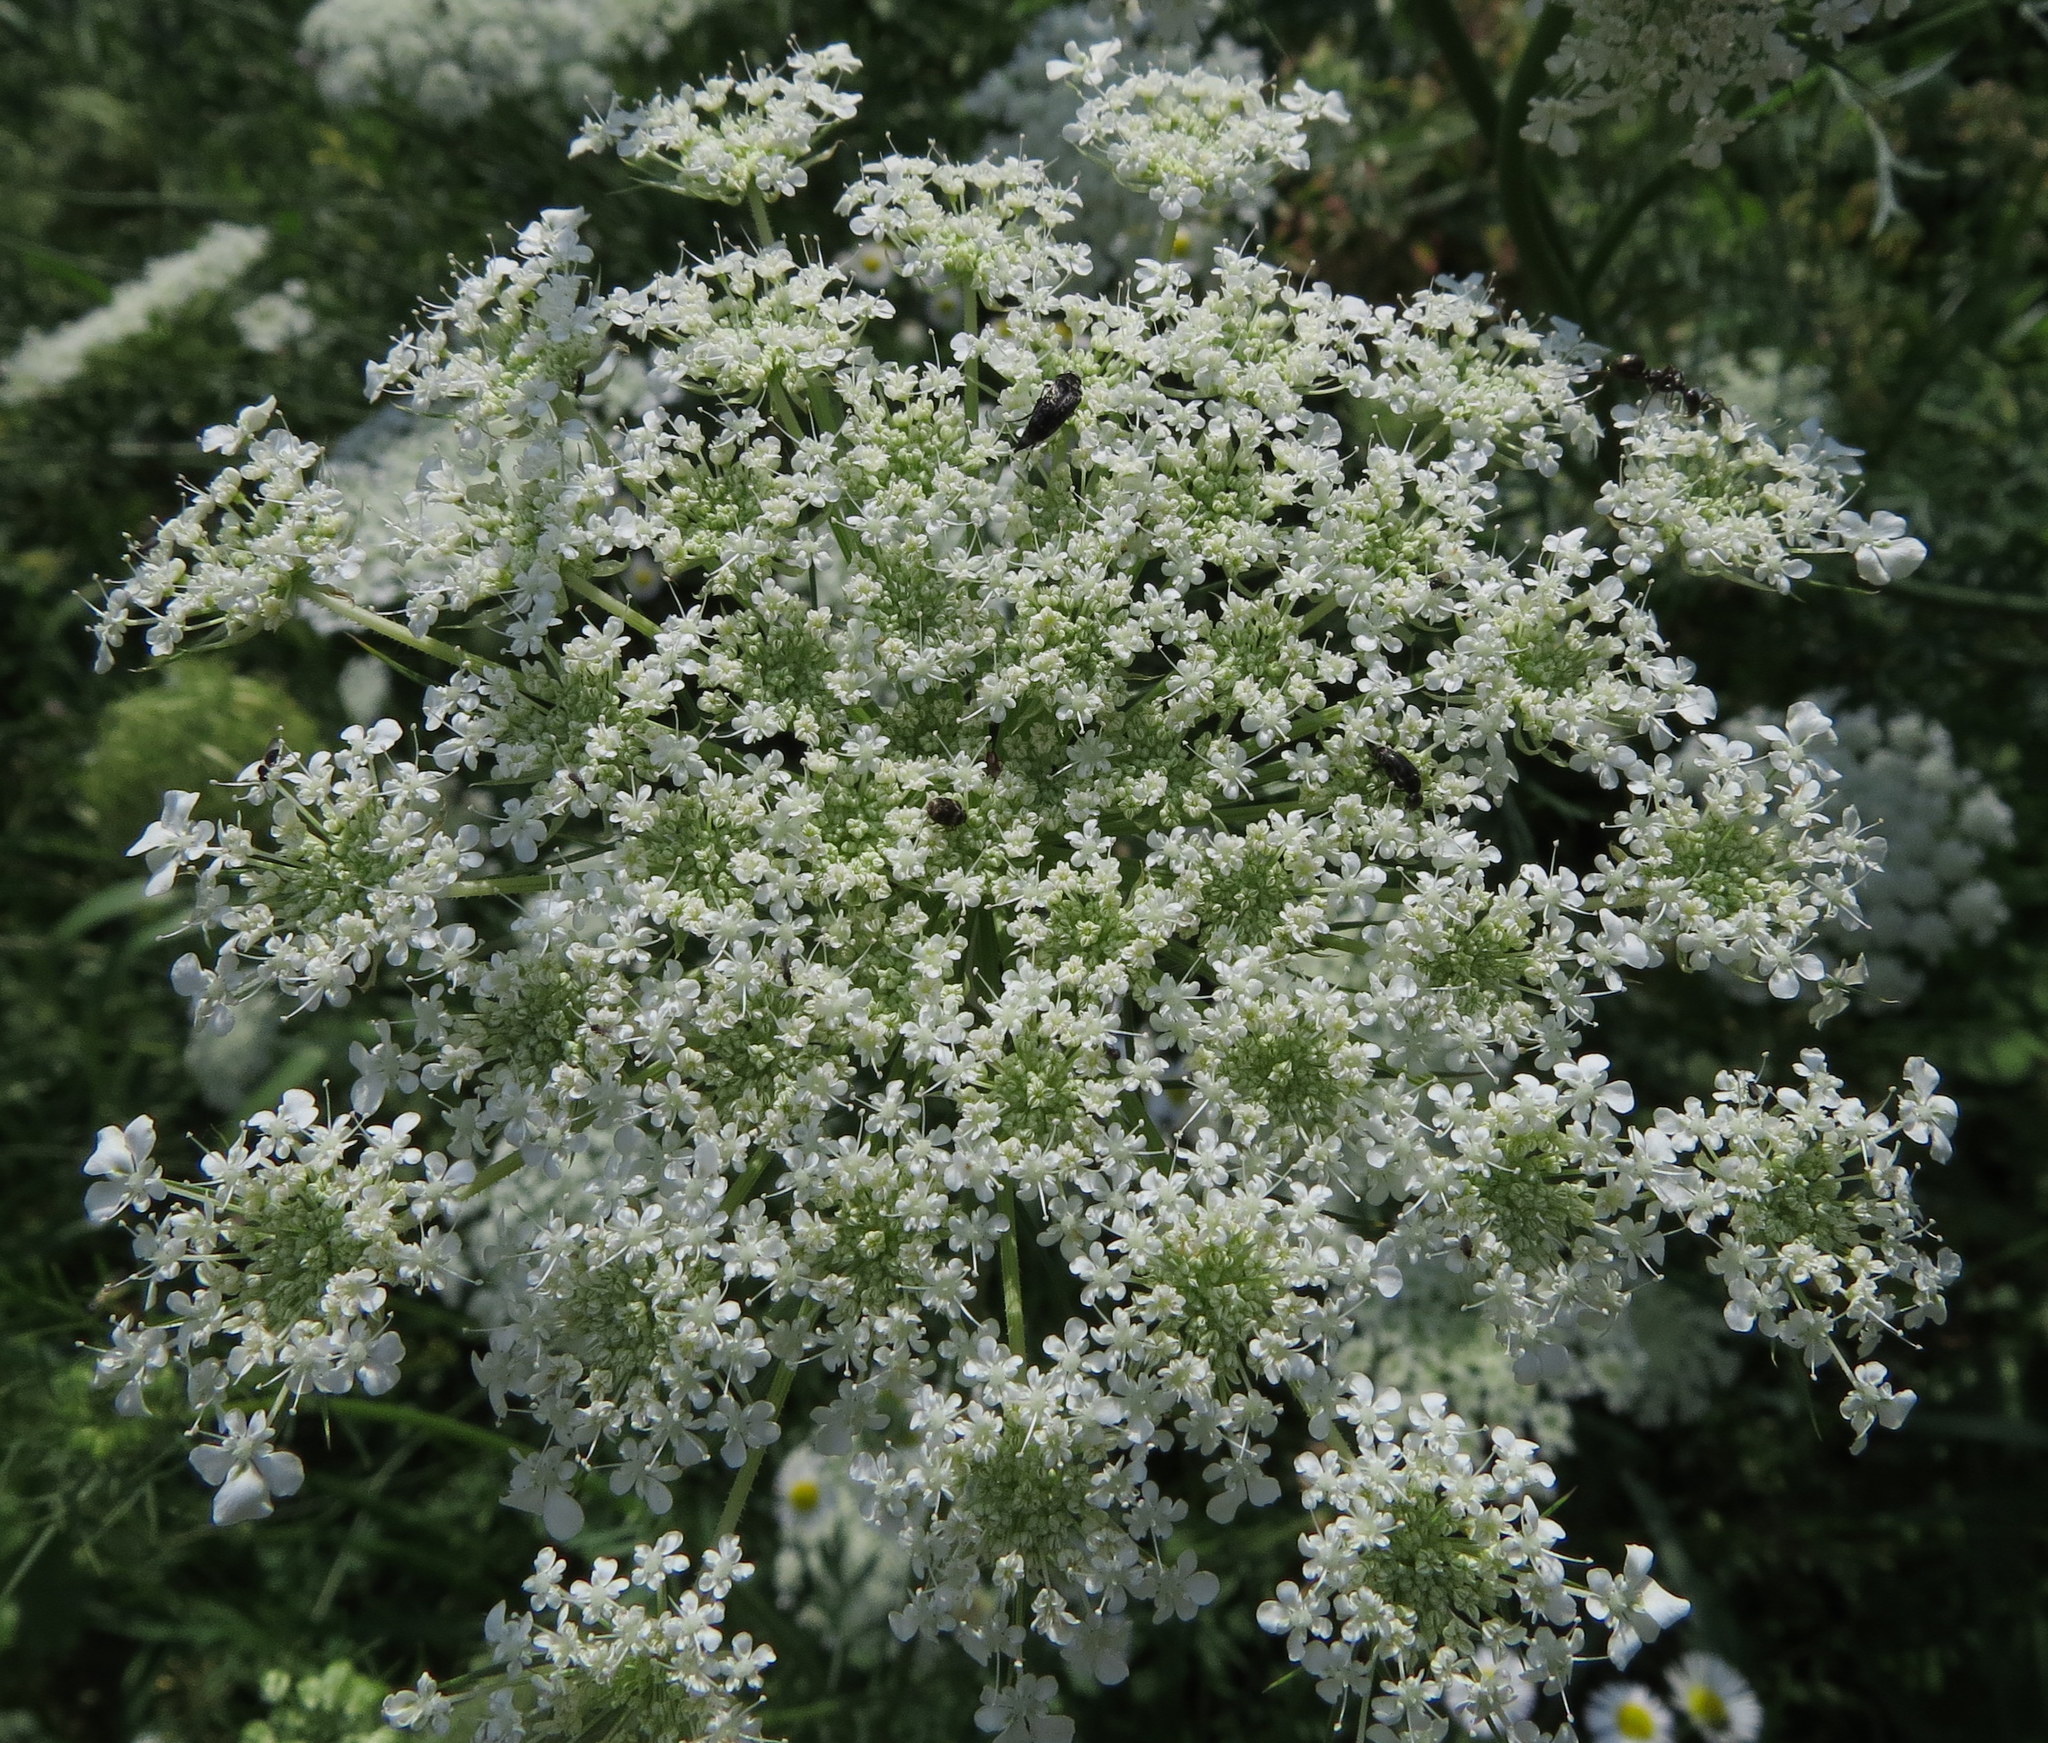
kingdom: Plantae
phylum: Tracheophyta
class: Magnoliopsida
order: Apiales
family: Apiaceae
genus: Daucus
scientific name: Daucus carota
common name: Wild carrot
